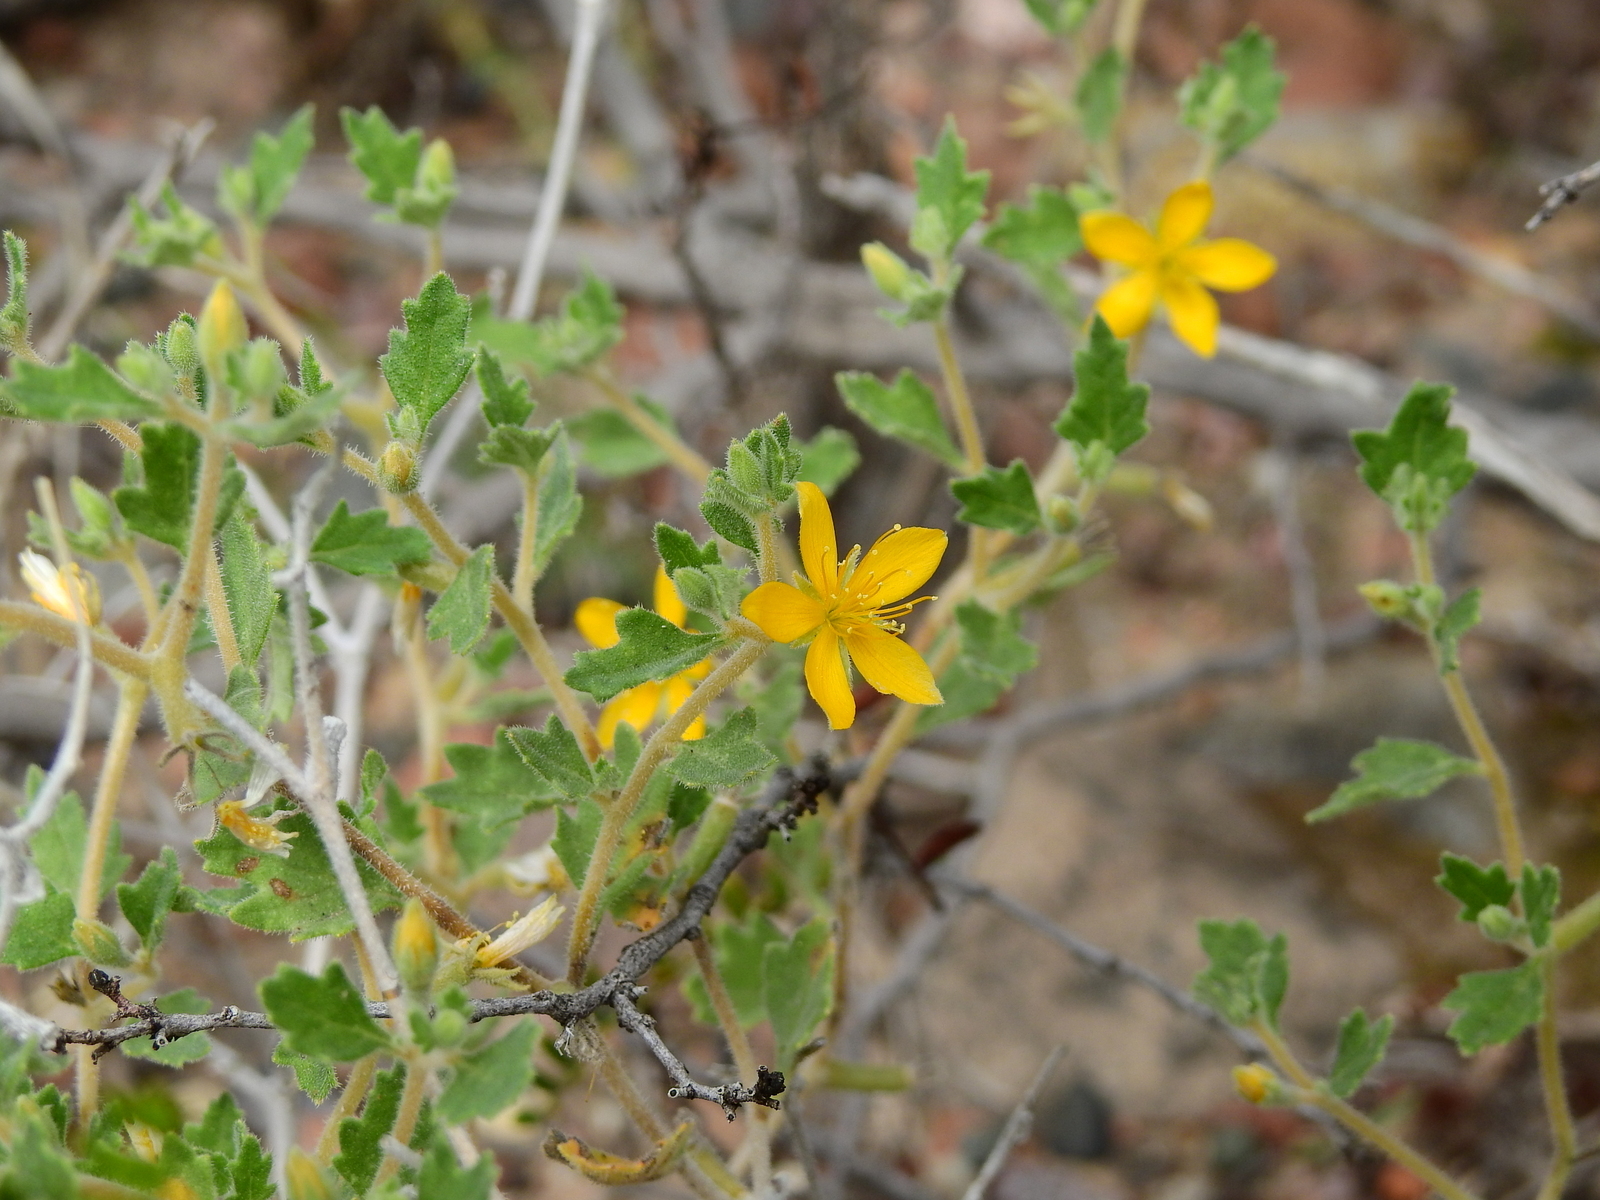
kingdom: Plantae
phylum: Tracheophyta
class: Magnoliopsida
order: Cornales
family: Loasaceae
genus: Mentzelia
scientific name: Mentzelia parvifolia
